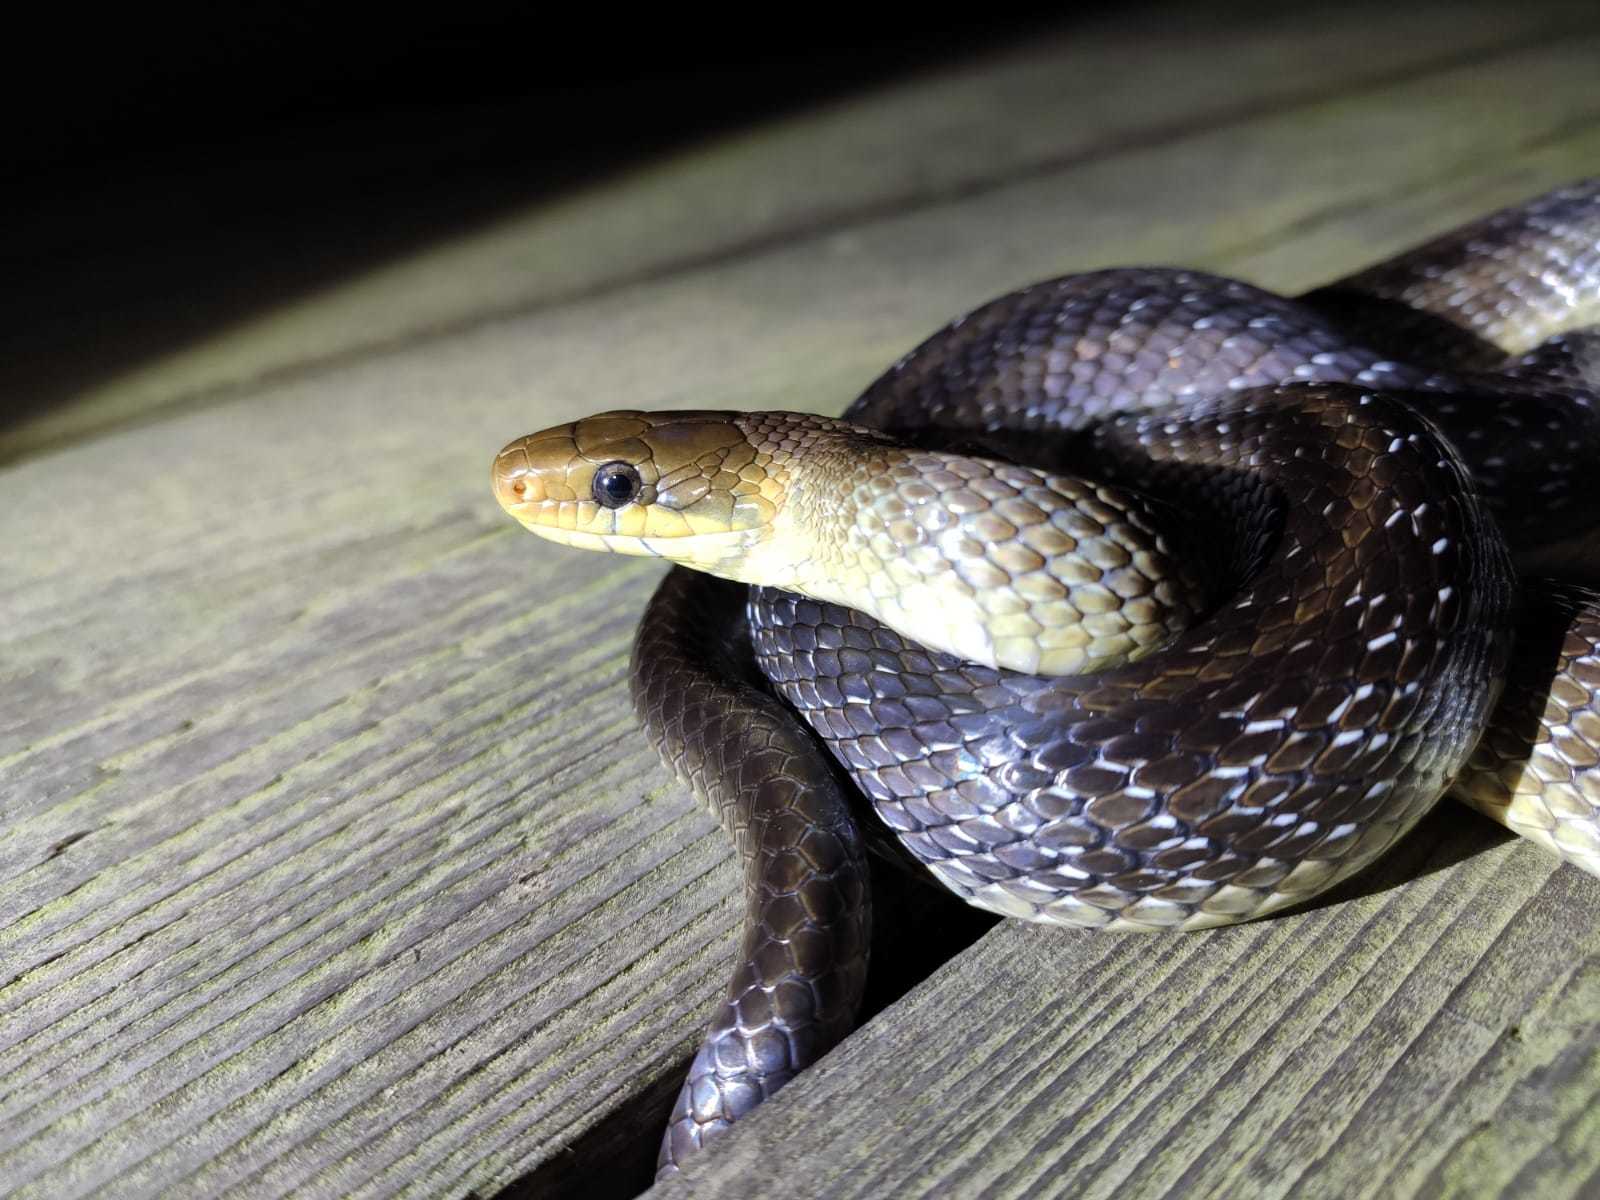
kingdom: Animalia
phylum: Chordata
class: Squamata
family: Colubridae
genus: Zamenis
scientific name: Zamenis longissimus
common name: Aesculapean snake
